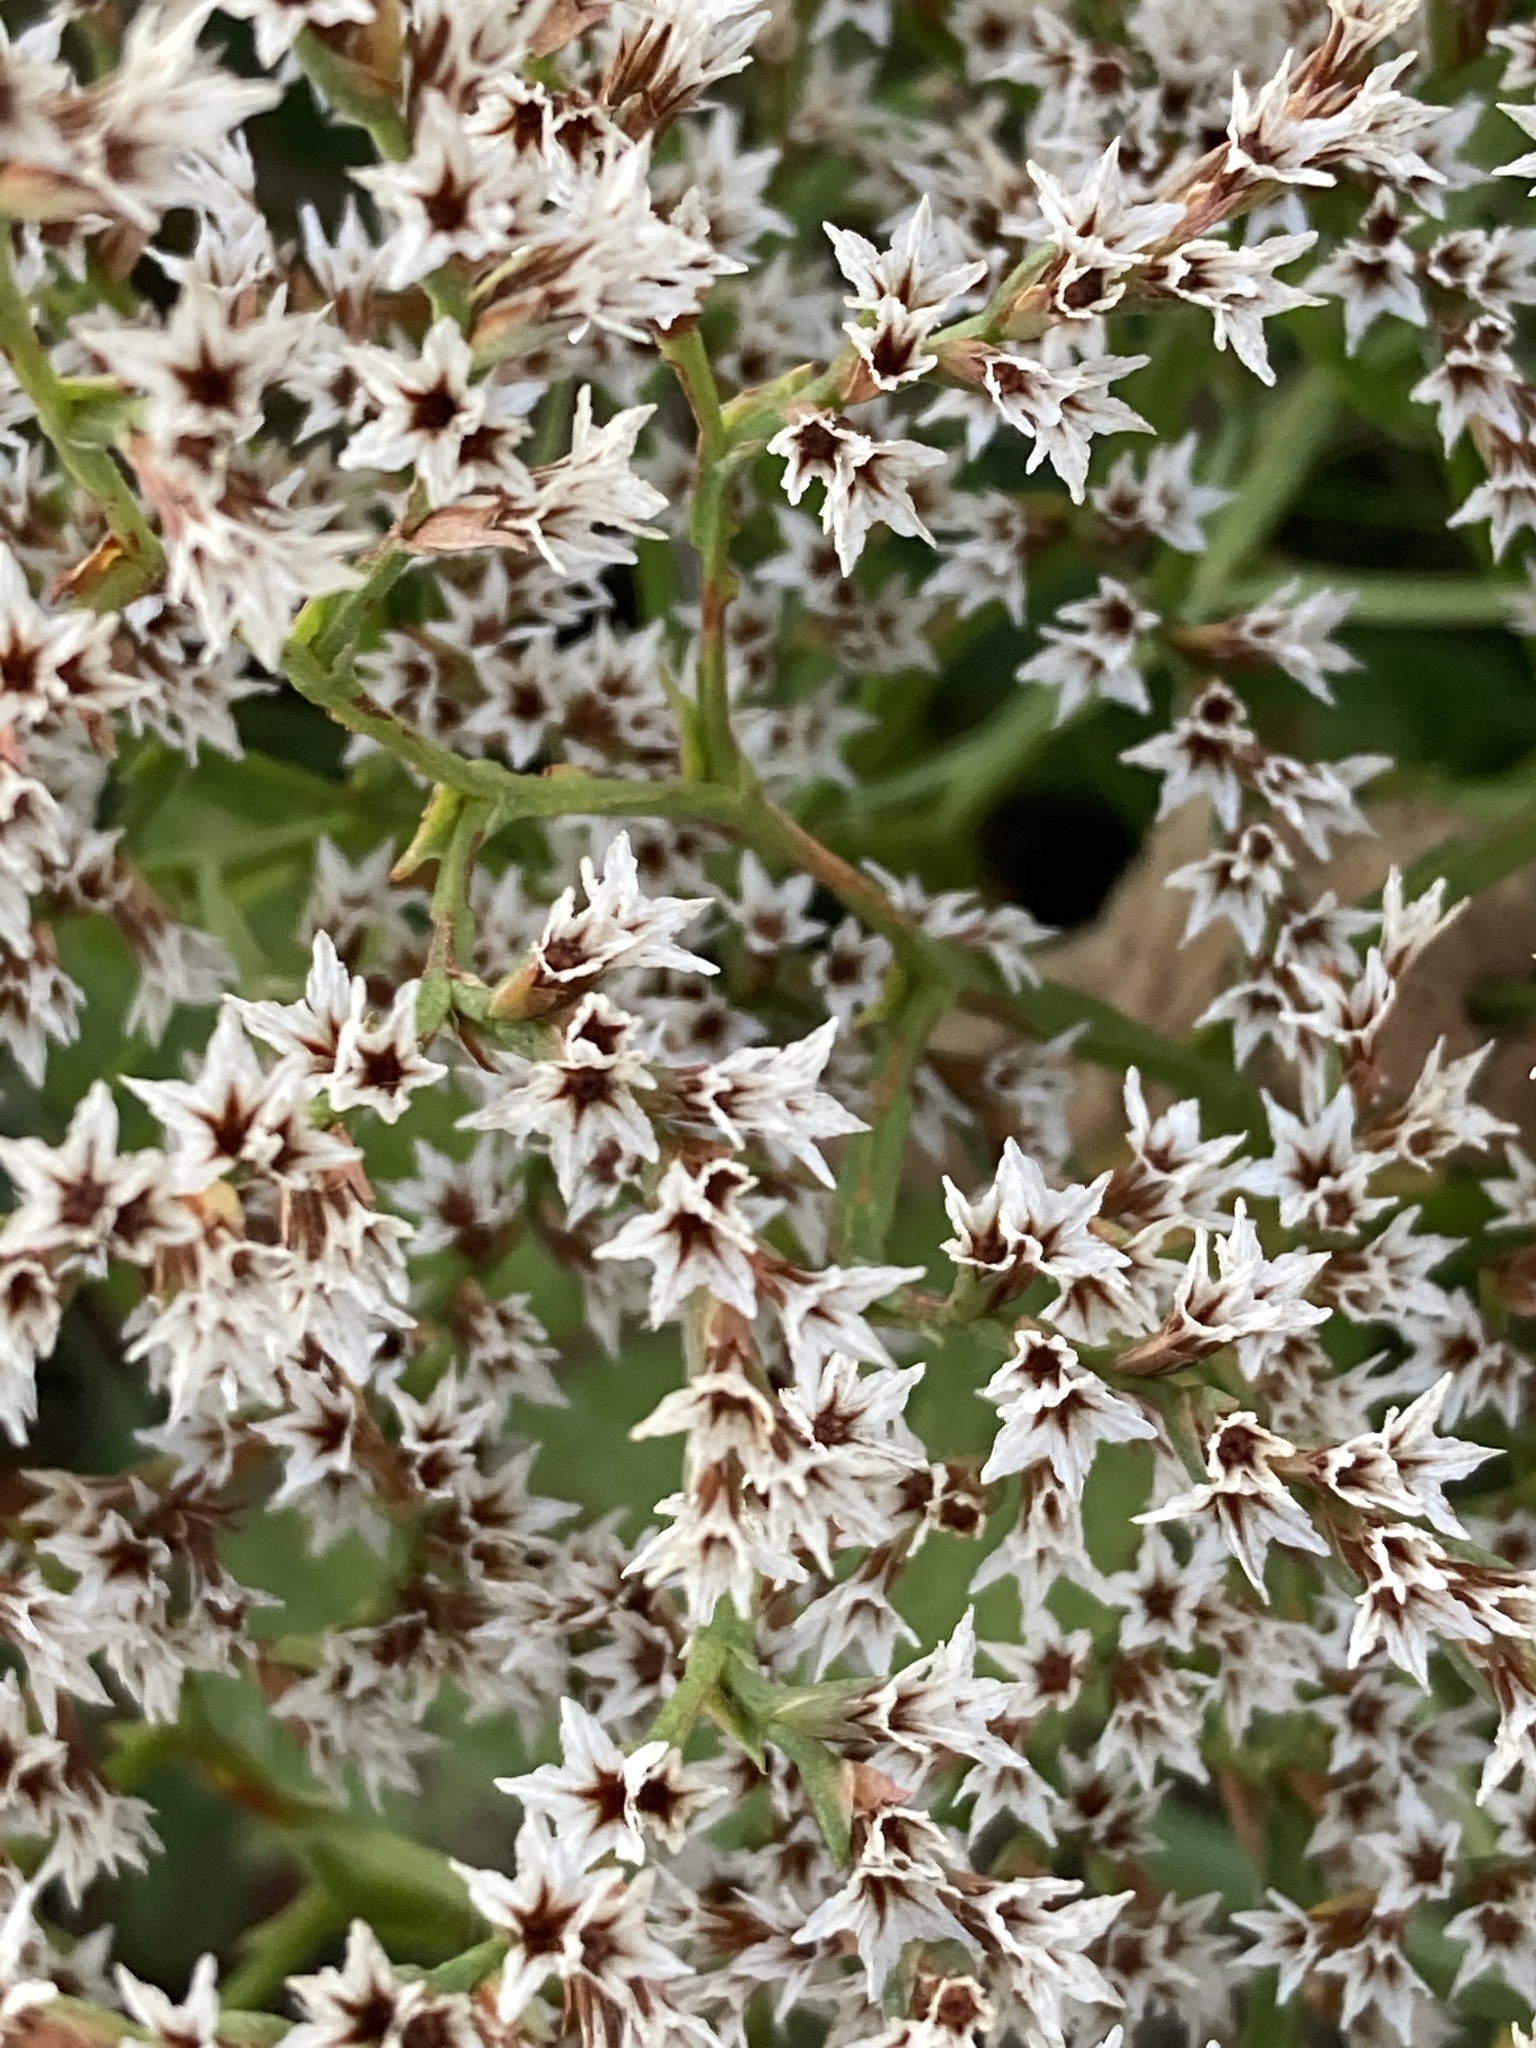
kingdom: Plantae
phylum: Tracheophyta
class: Magnoliopsida
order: Caryophyllales
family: Plumbaginaceae
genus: Goniolimon
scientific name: Goniolimon tataricum
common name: Statice
